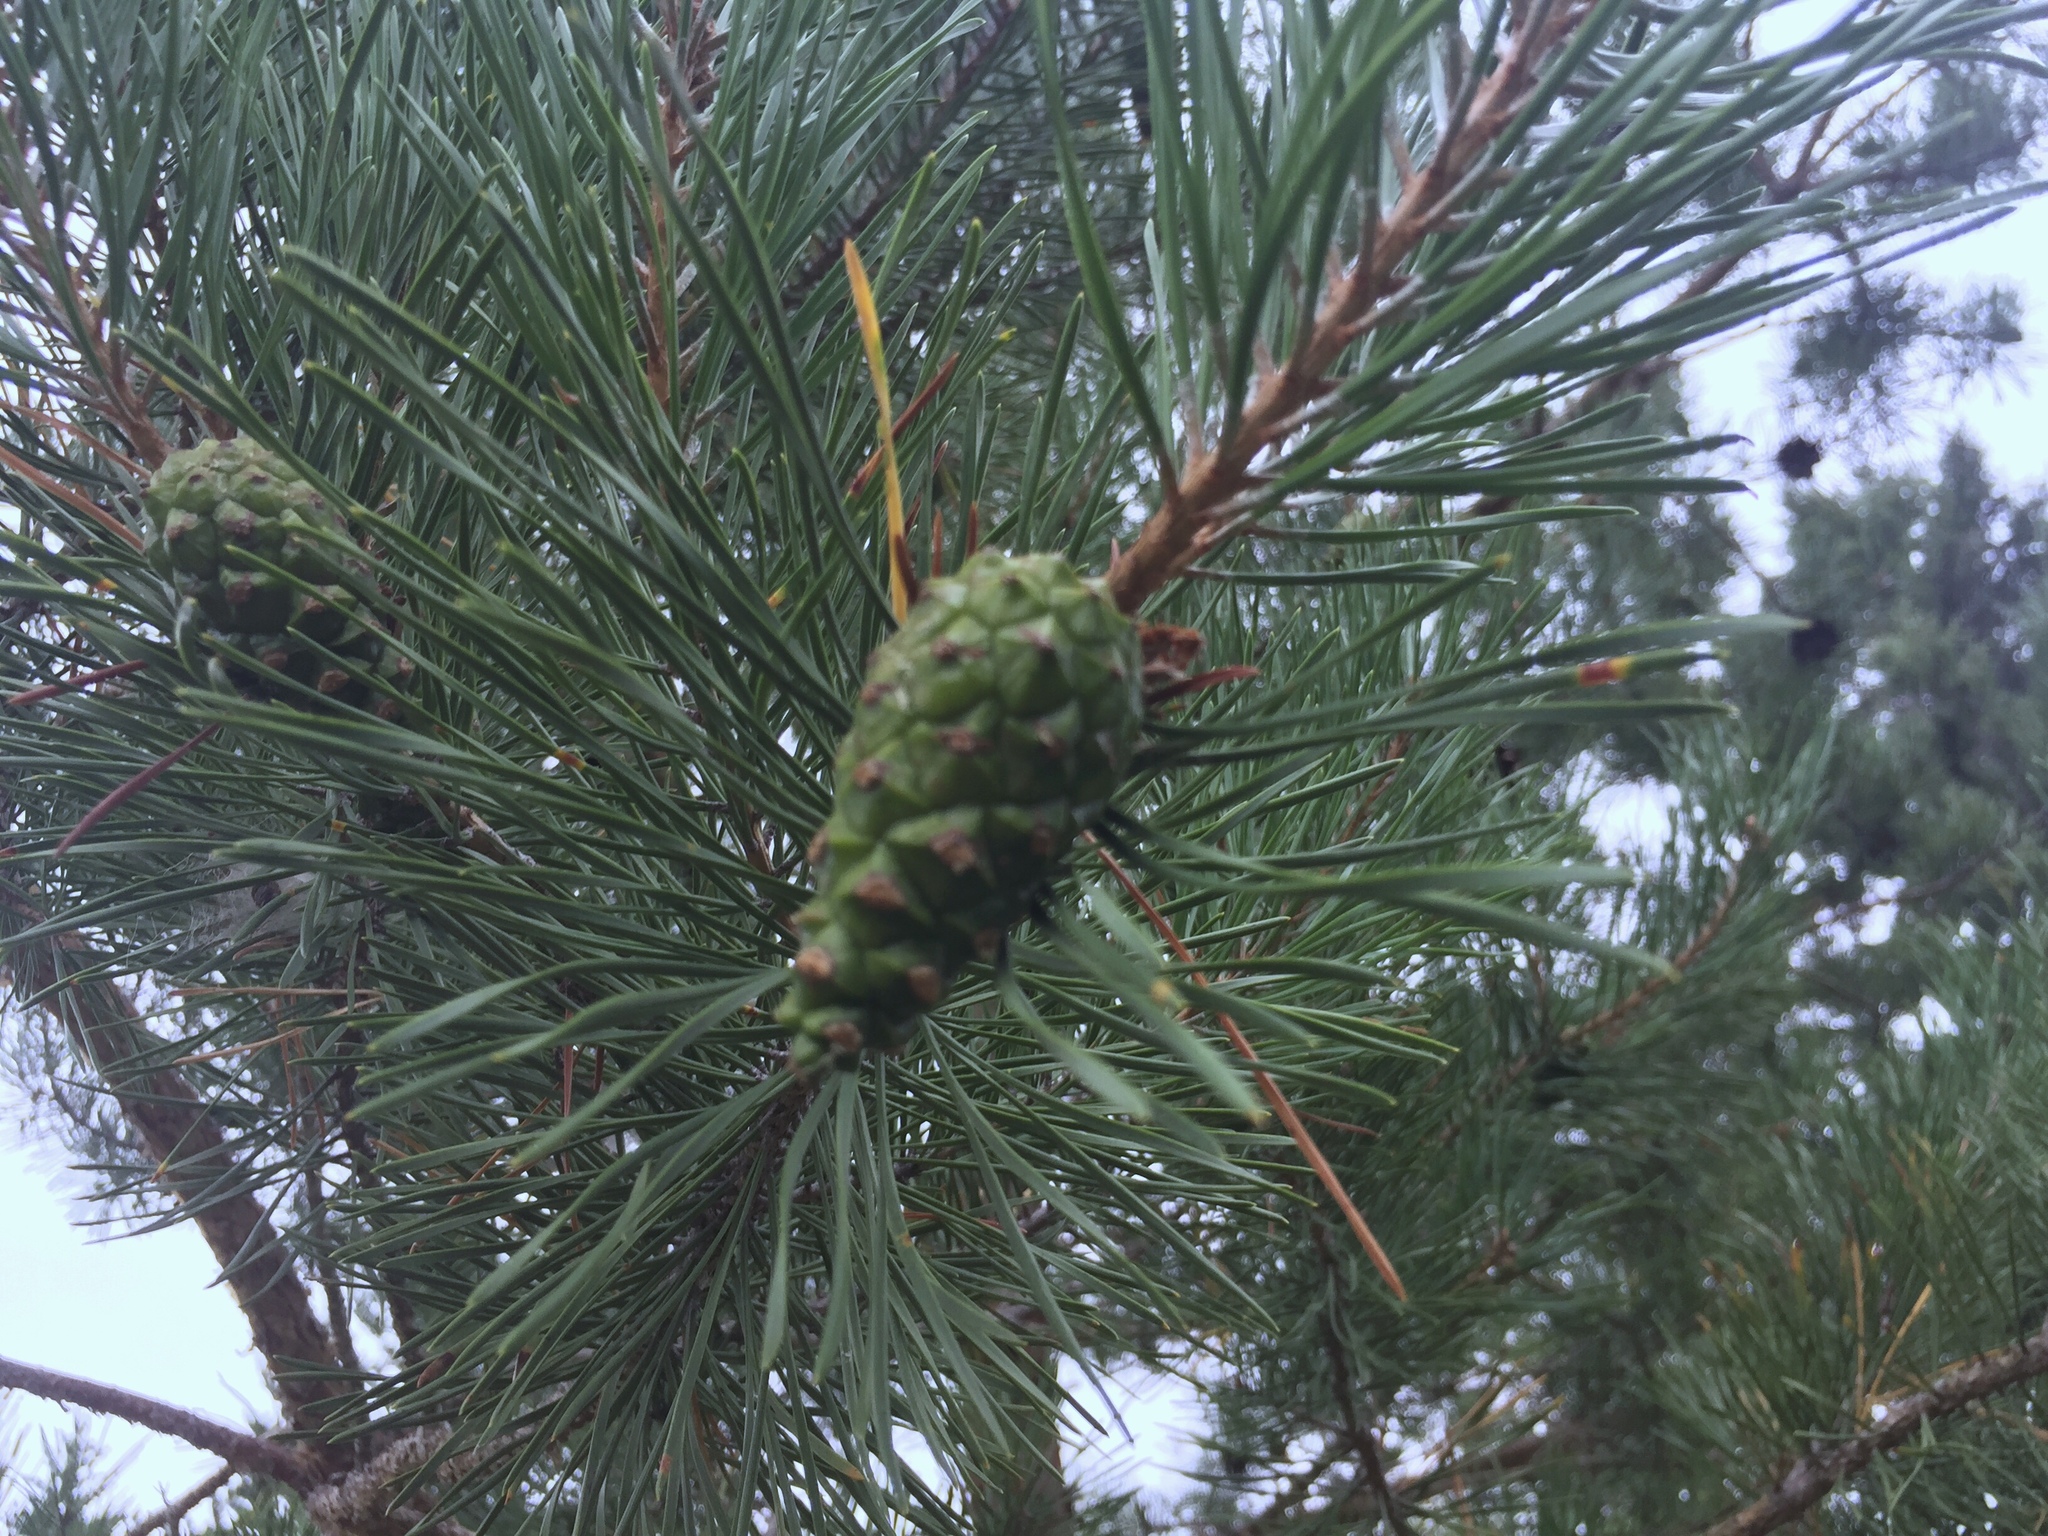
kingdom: Plantae
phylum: Tracheophyta
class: Pinopsida
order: Pinales
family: Pinaceae
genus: Pinus
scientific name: Pinus sylvestris
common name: Scots pine
